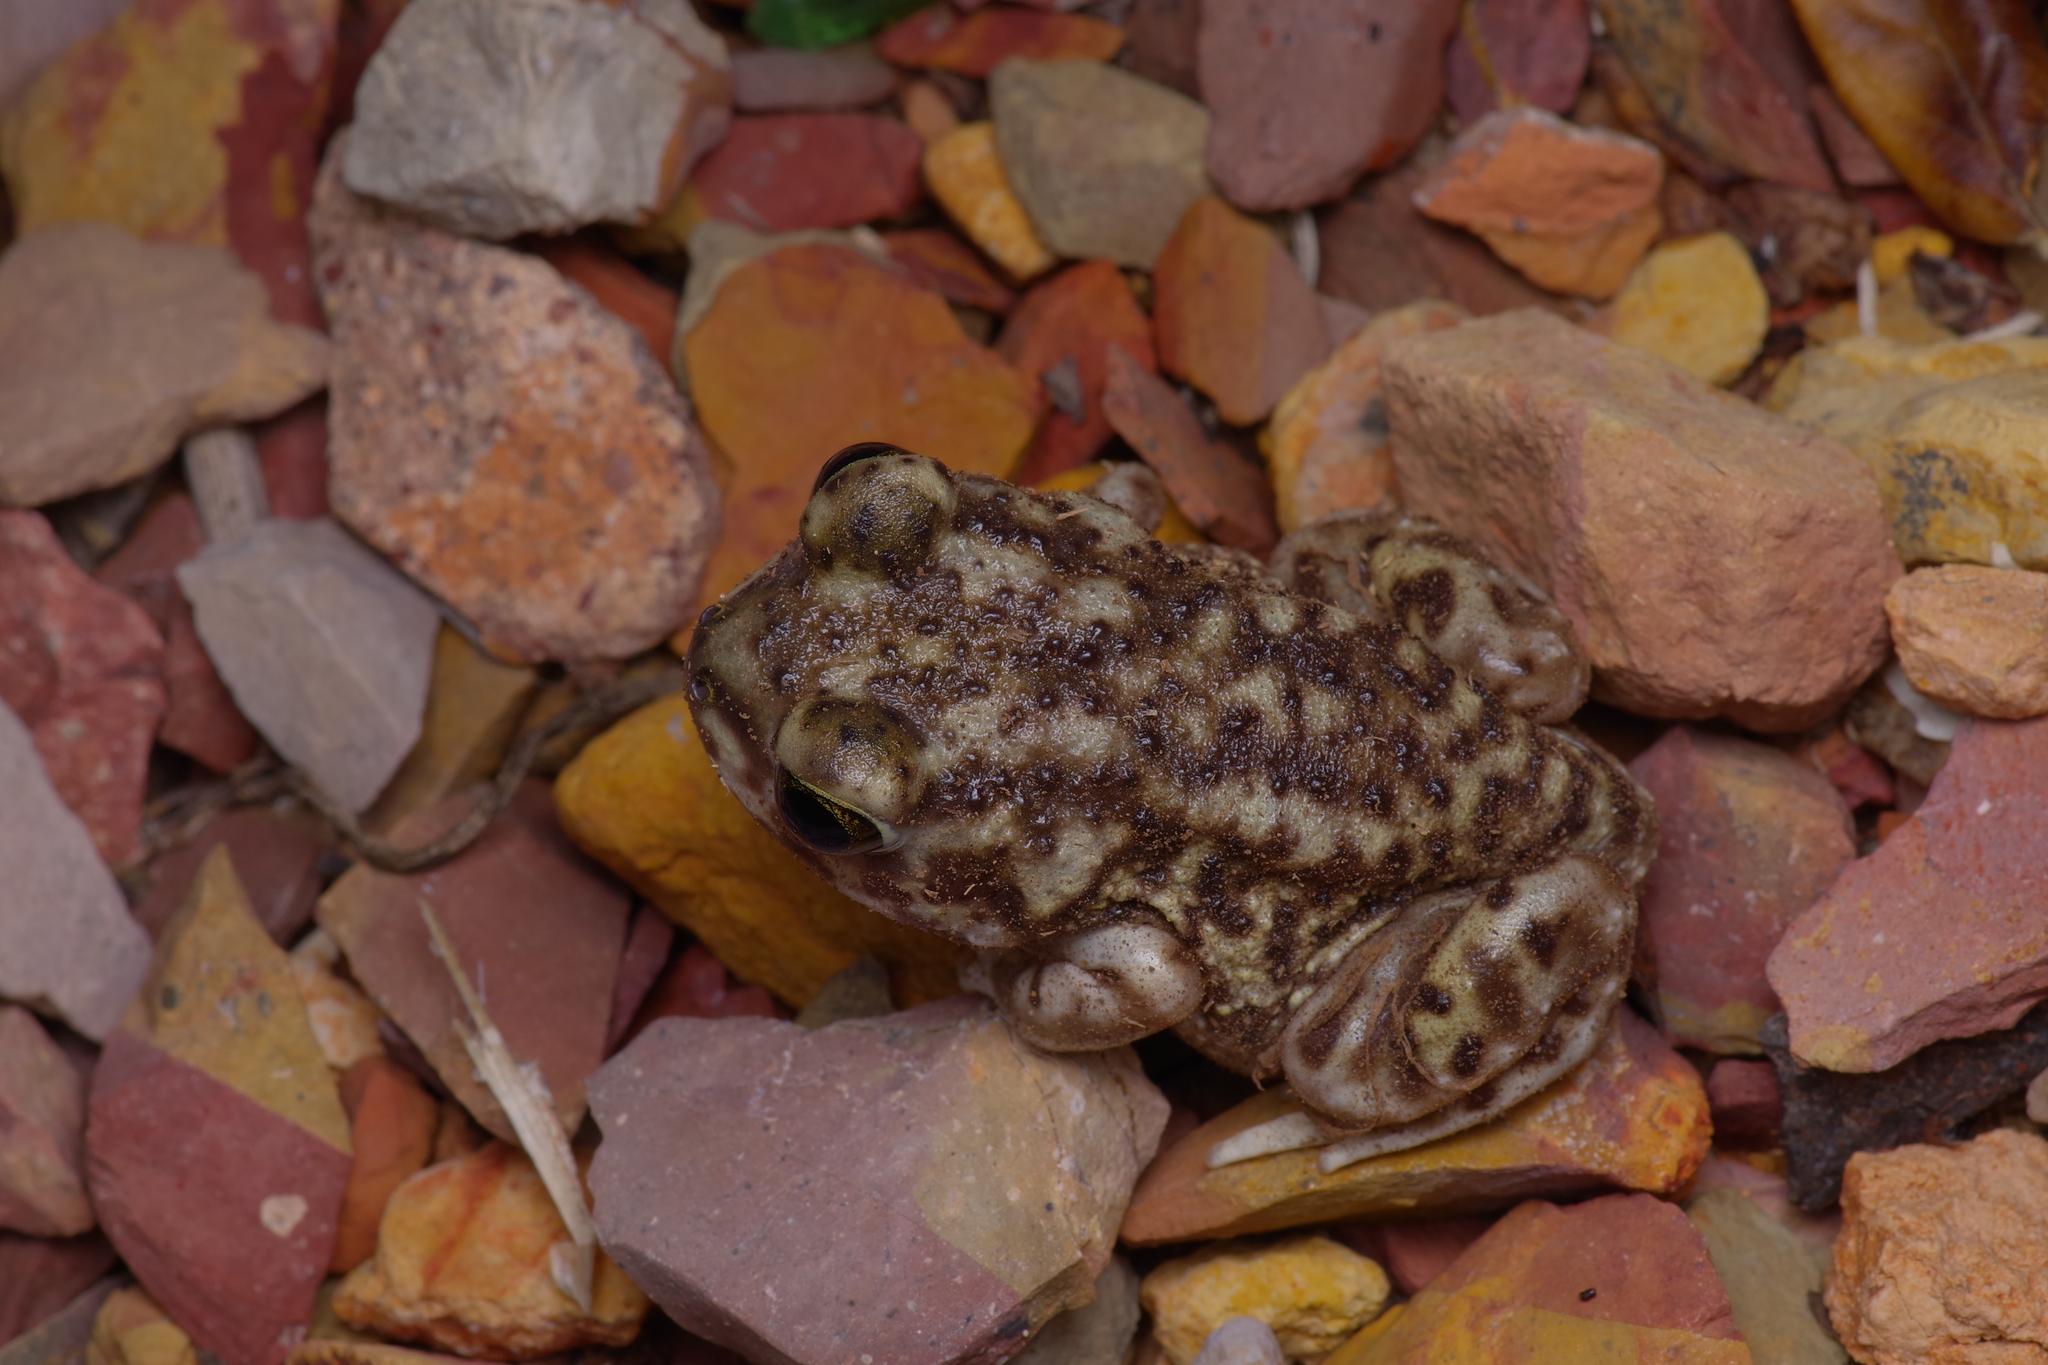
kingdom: Animalia
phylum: Chordata
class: Amphibia
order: Anura
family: Scaphiopodidae
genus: Scaphiopus
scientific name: Scaphiopus couchii
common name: Couch's spadefoot toad
